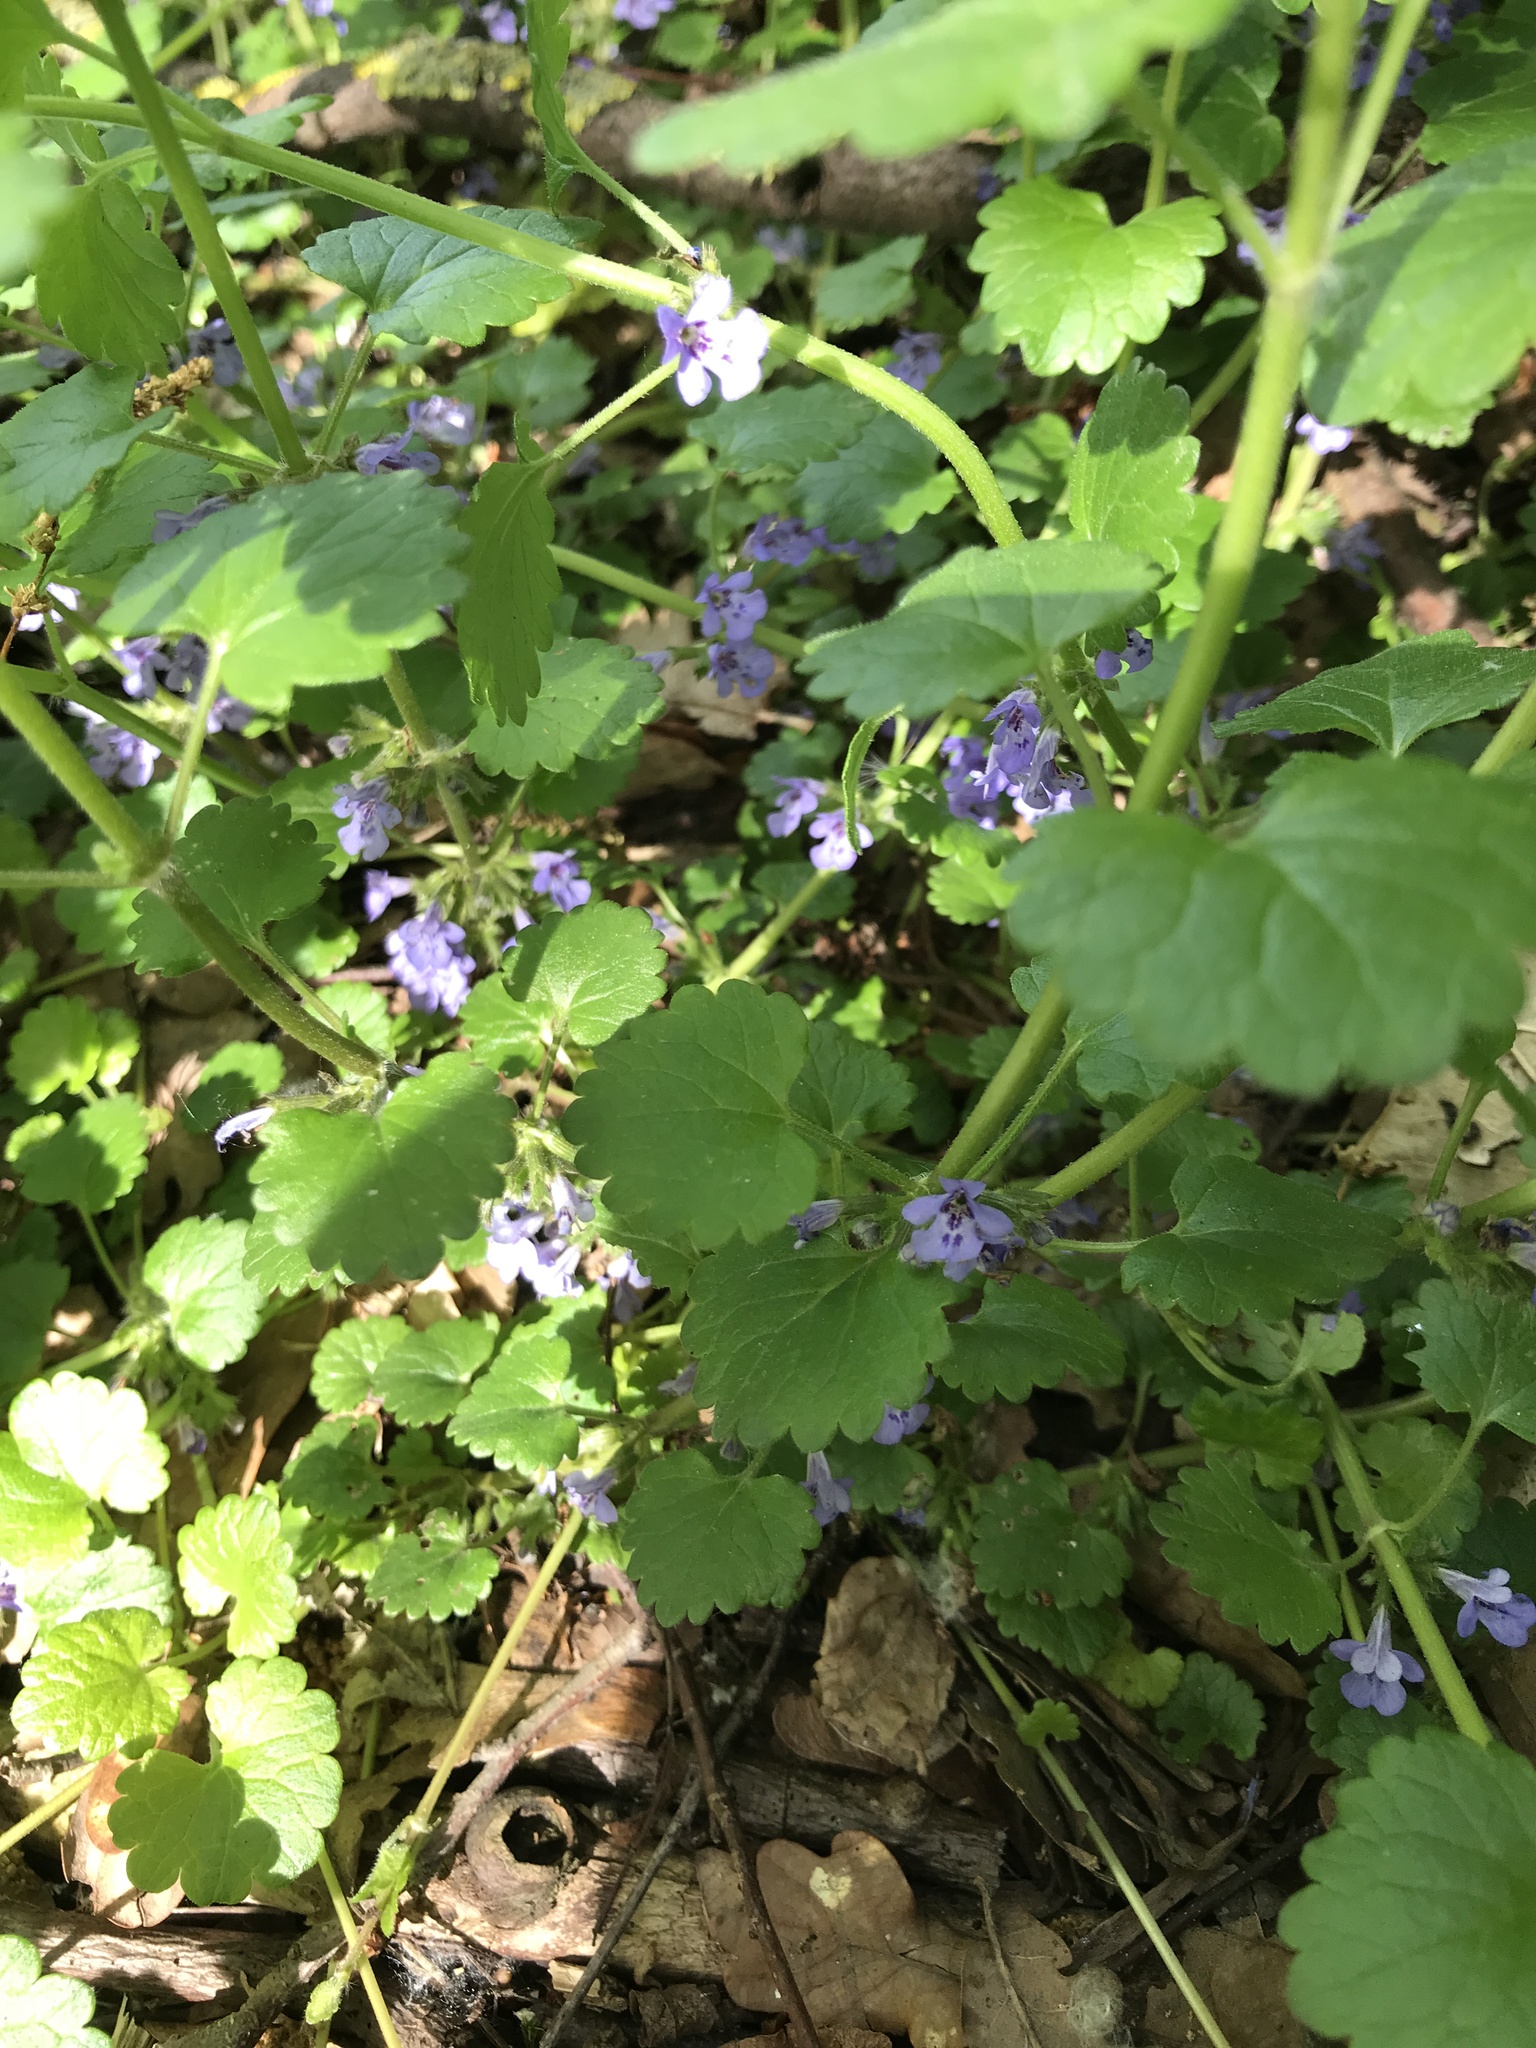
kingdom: Plantae
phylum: Tracheophyta
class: Magnoliopsida
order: Lamiales
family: Lamiaceae
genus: Glechoma
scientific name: Glechoma hederacea
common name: Ground ivy
